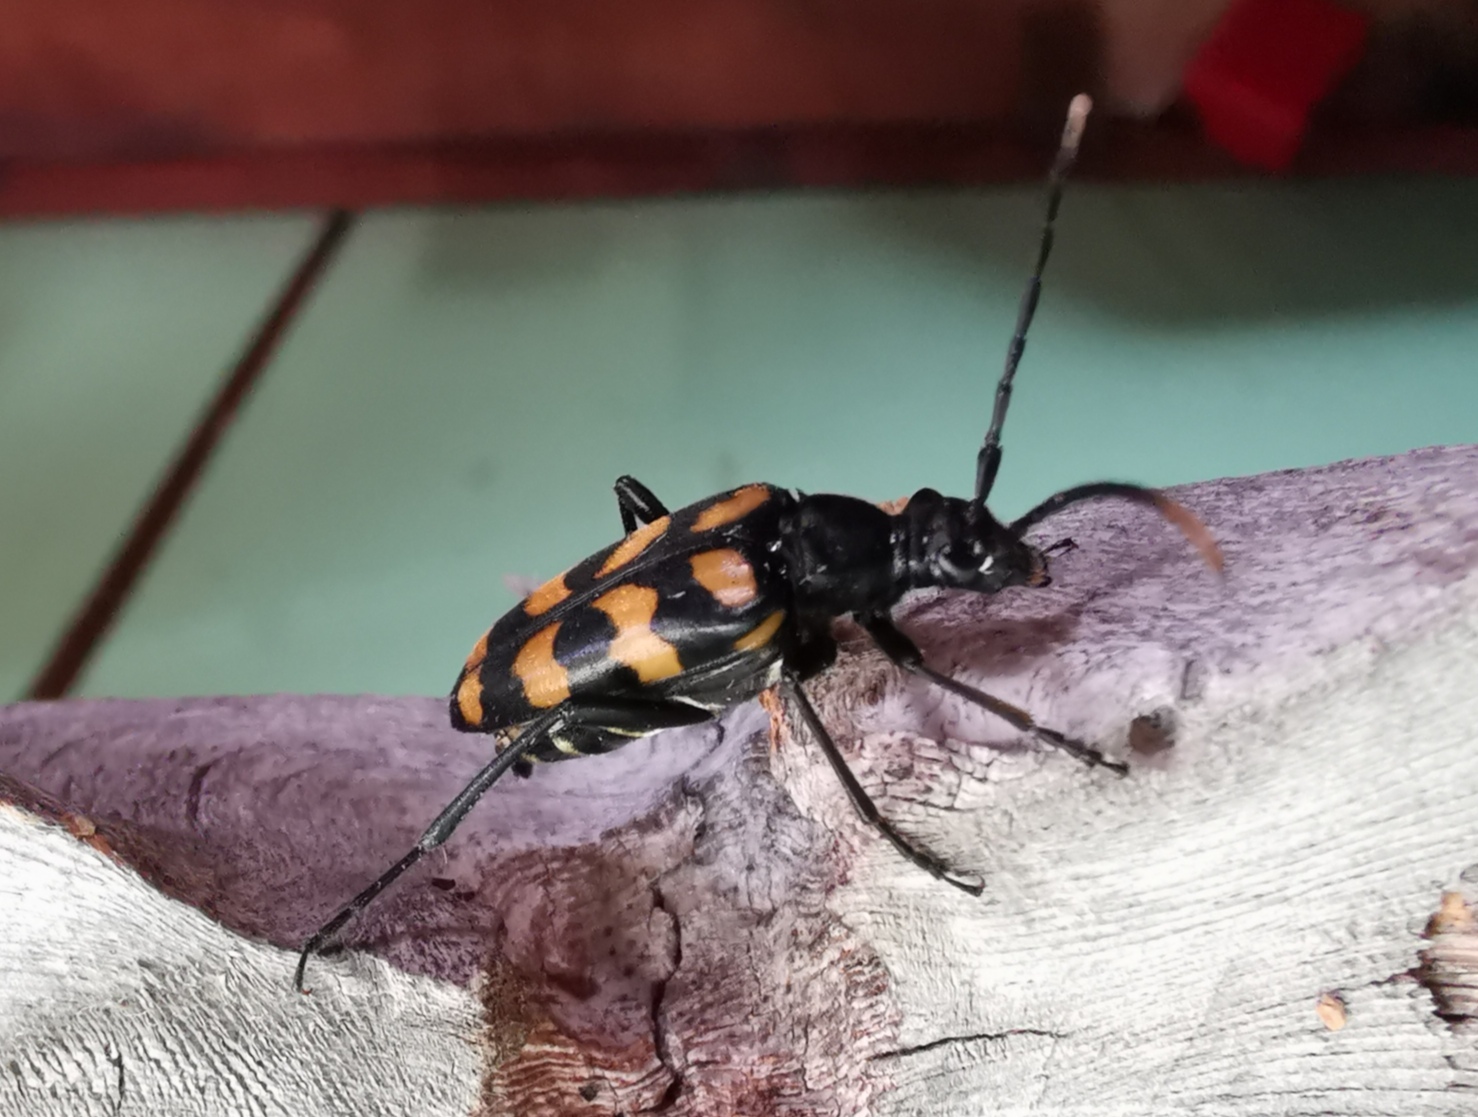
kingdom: Animalia
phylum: Arthropoda
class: Insecta
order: Coleoptera
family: Cerambycidae
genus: Leptura
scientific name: Leptura quadrifasciata
